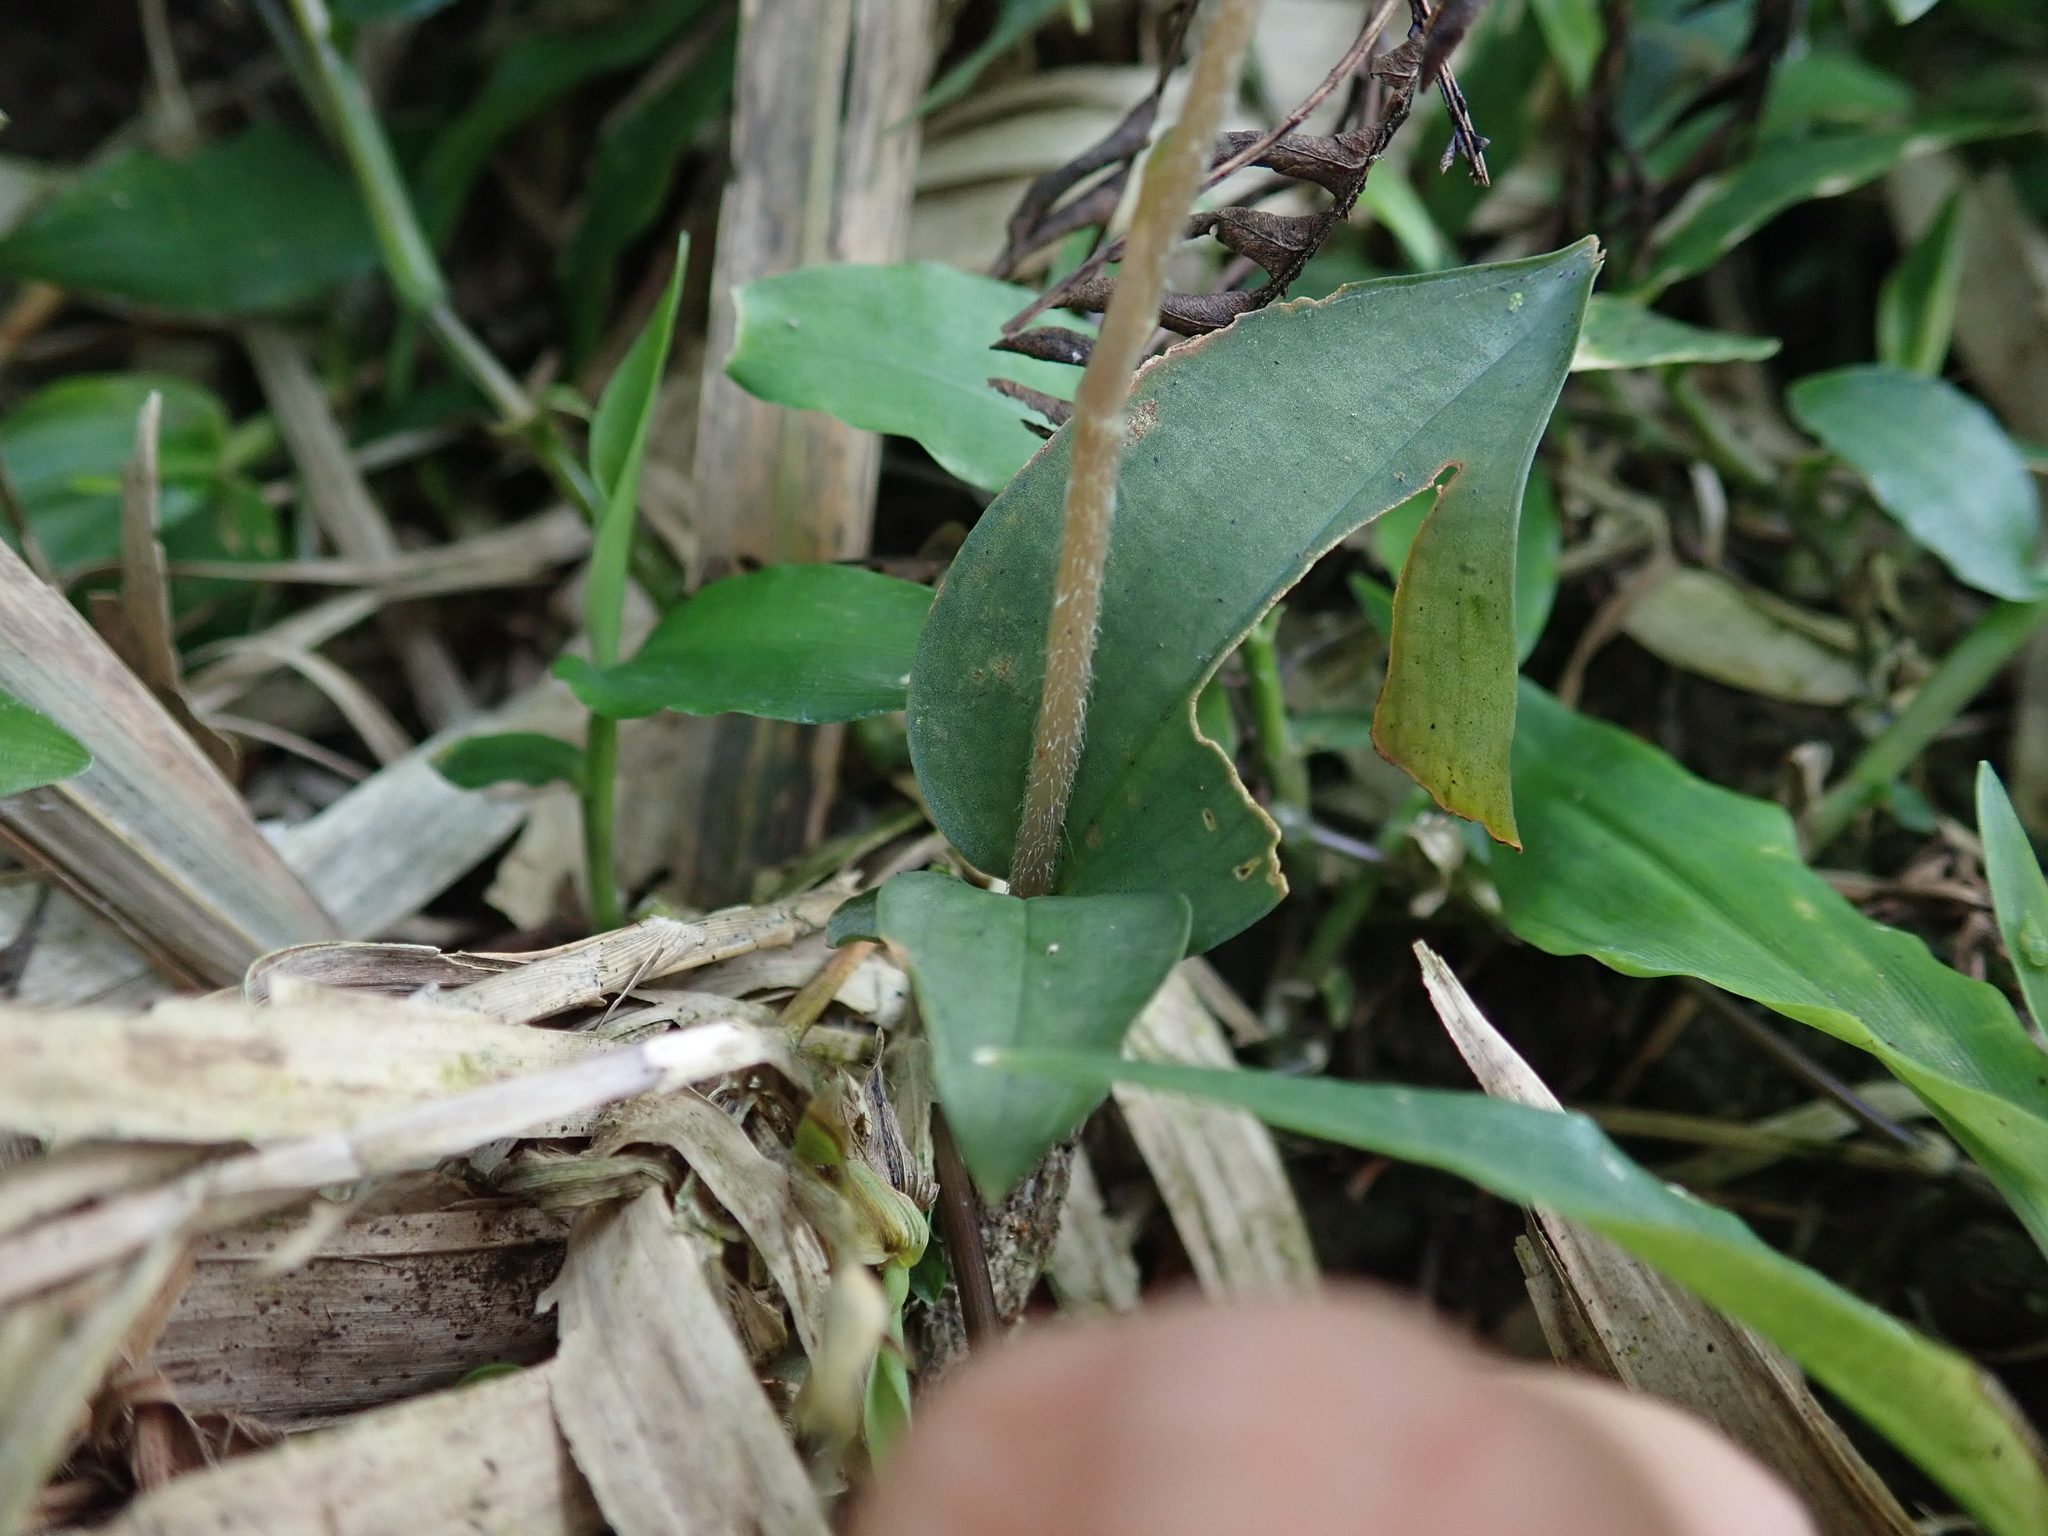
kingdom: Plantae
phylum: Tracheophyta
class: Liliopsida
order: Asparagales
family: Orchidaceae
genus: Zeuxine
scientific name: Zeuxine nervosa
